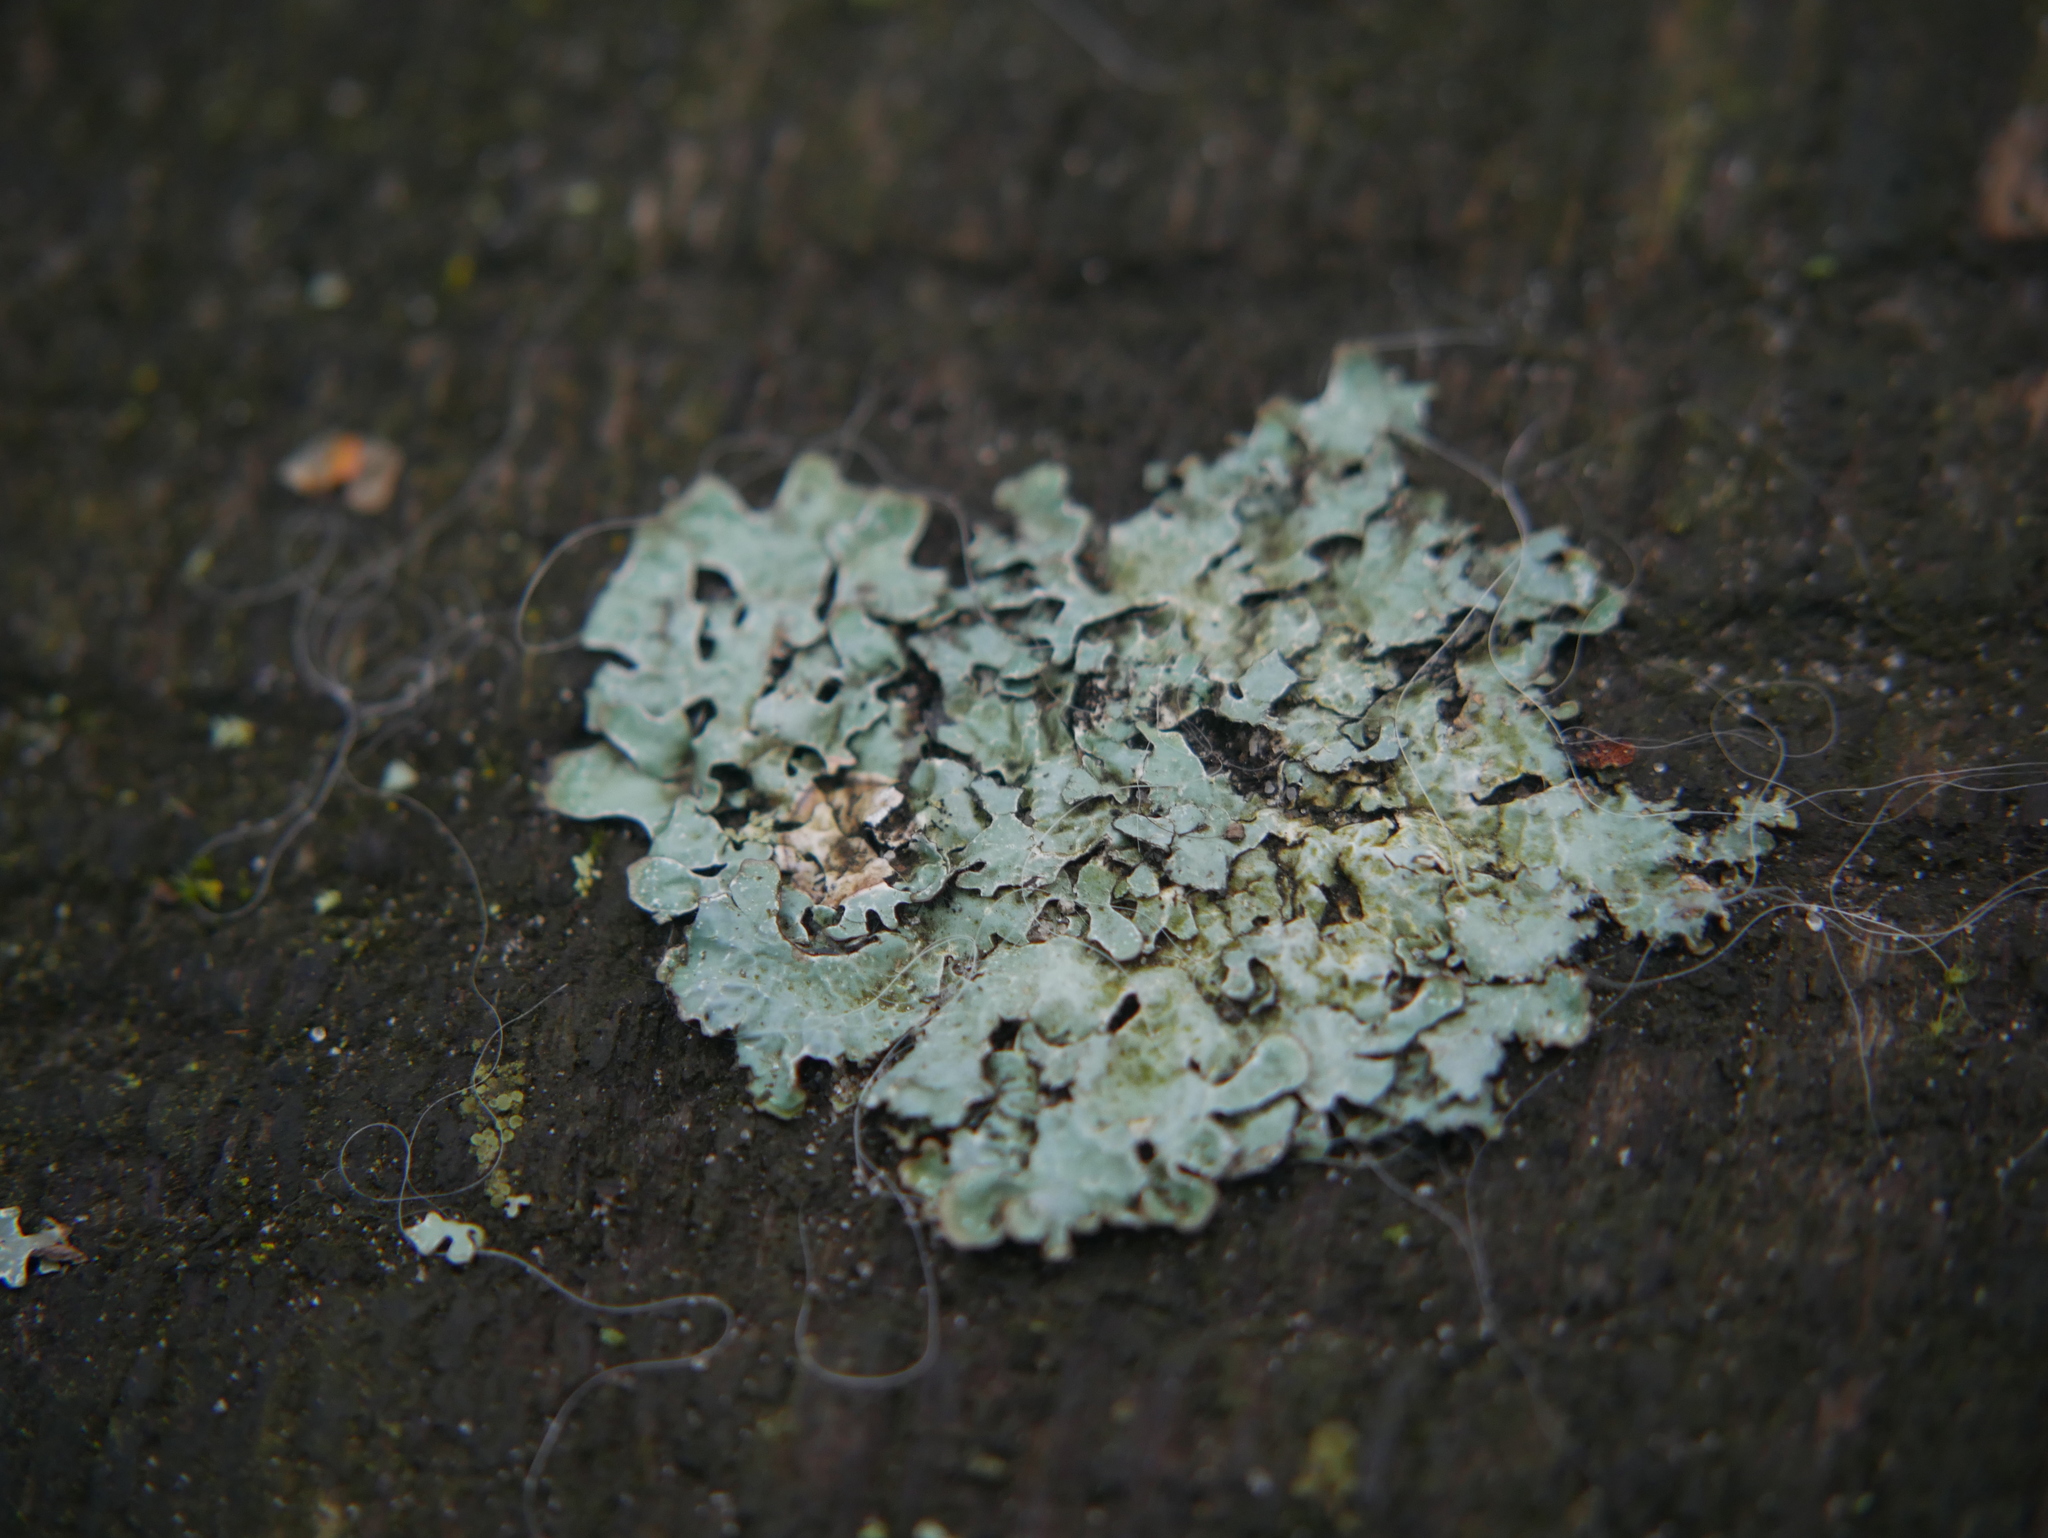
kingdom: Fungi
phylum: Ascomycota
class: Lecanoromycetes
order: Lecanorales
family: Parmeliaceae
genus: Parmelia
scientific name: Parmelia sulcata
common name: Netted shield lichen
